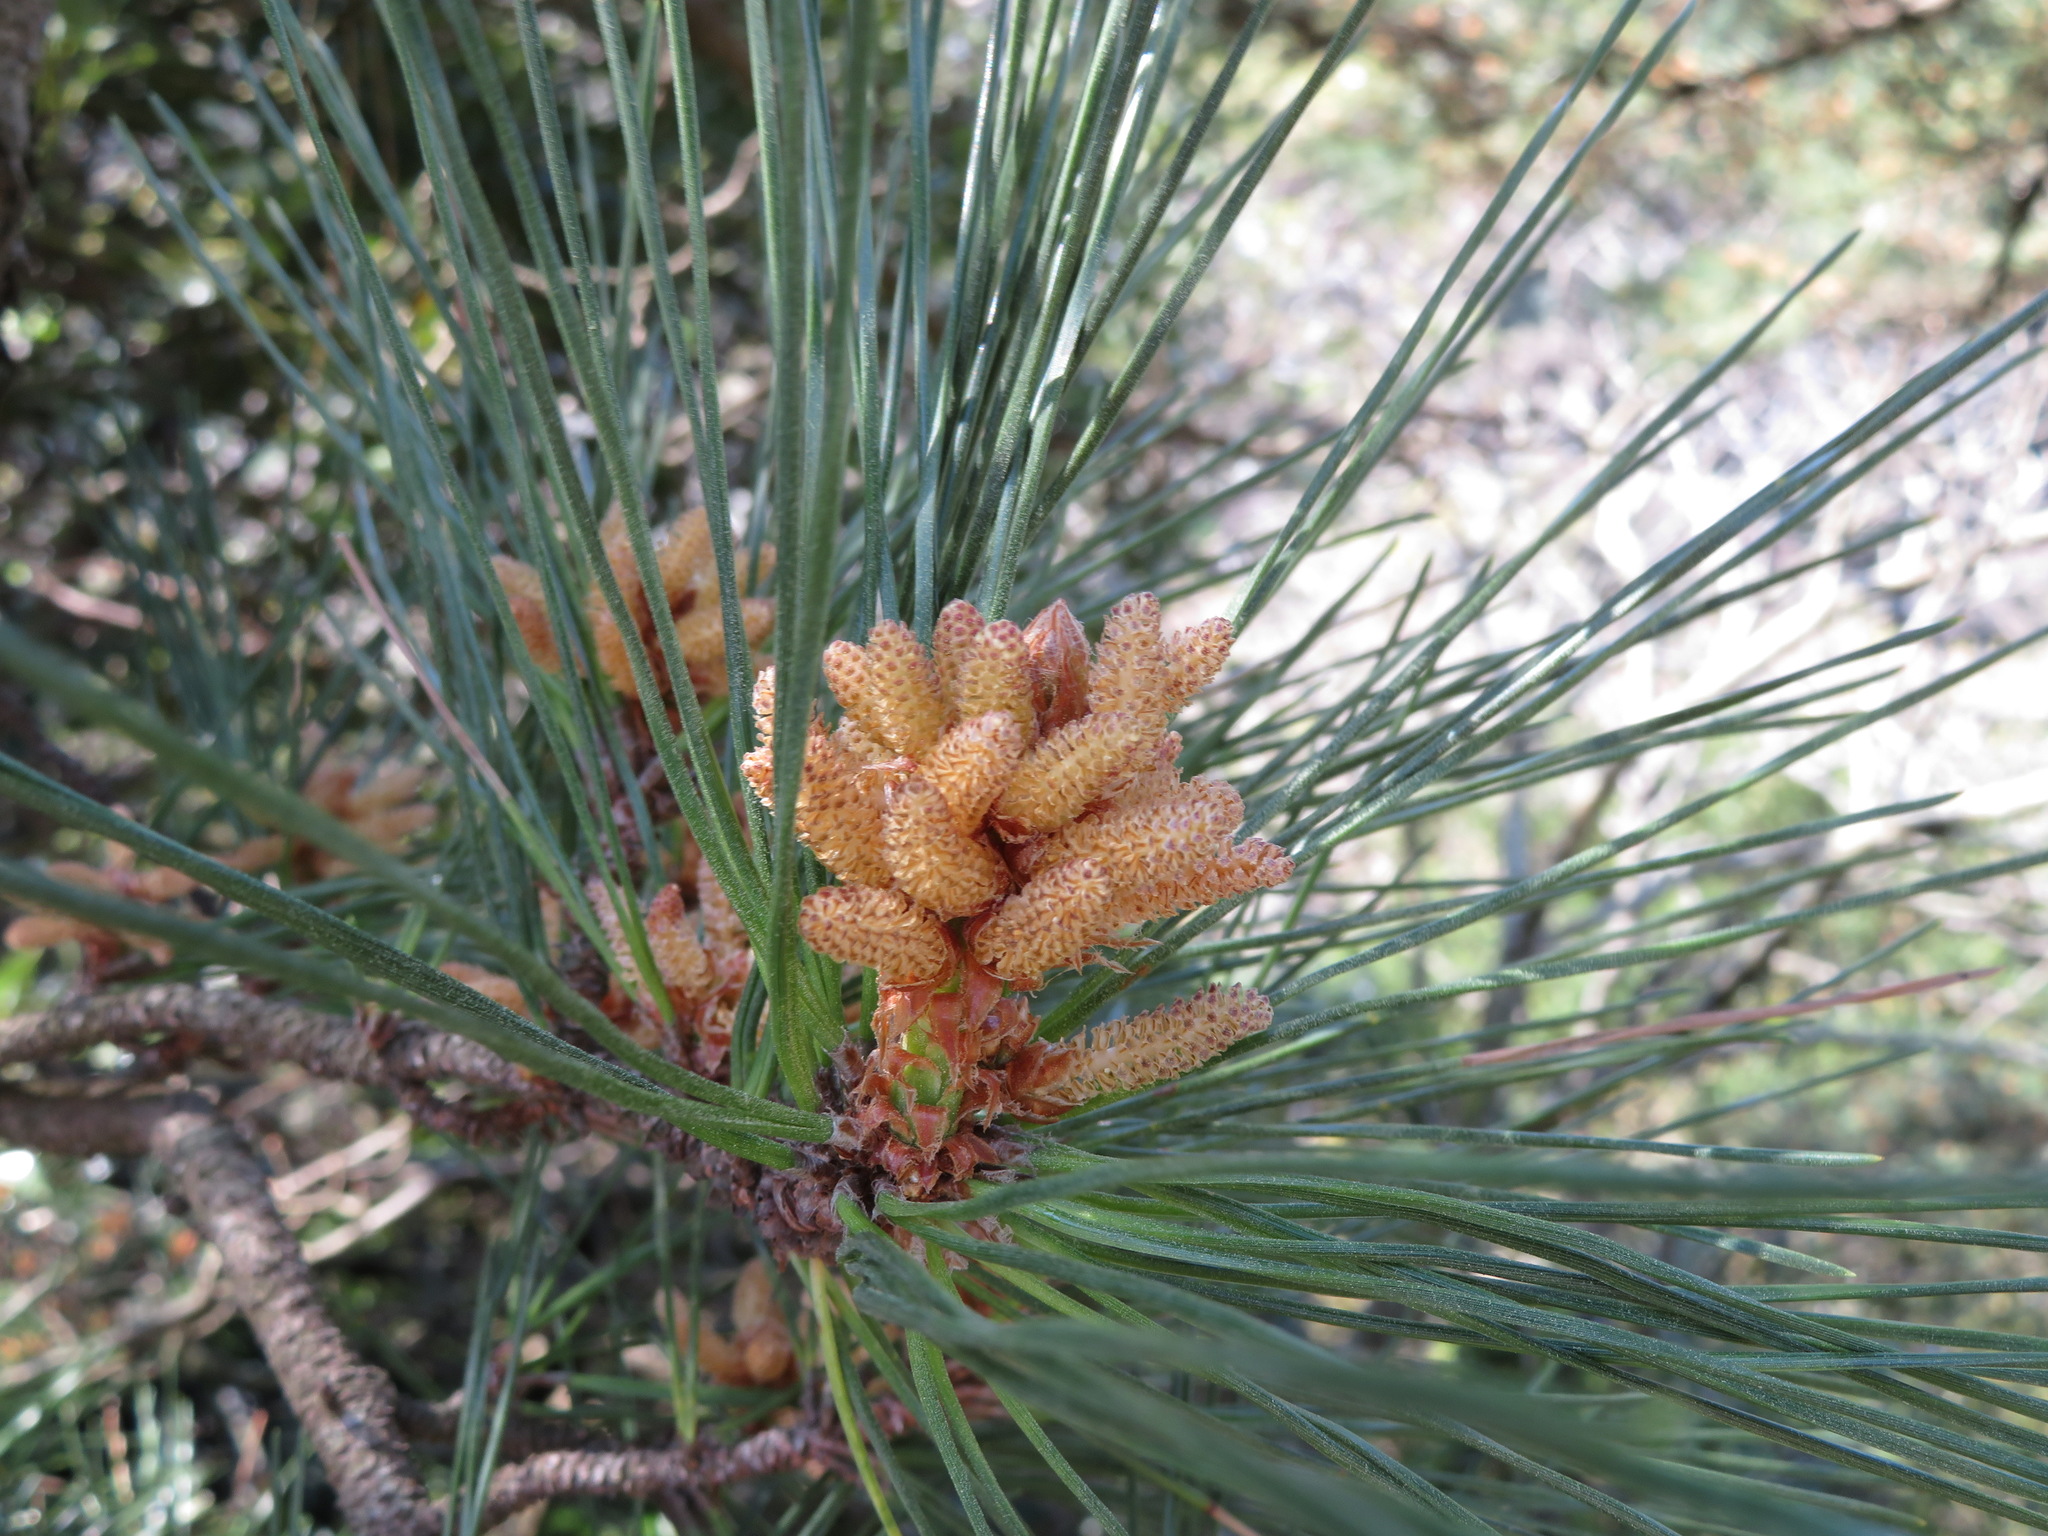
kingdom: Plantae
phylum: Tracheophyta
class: Pinopsida
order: Pinales
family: Pinaceae
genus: Pinus
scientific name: Pinus thunbergii
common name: Japanese black pine
